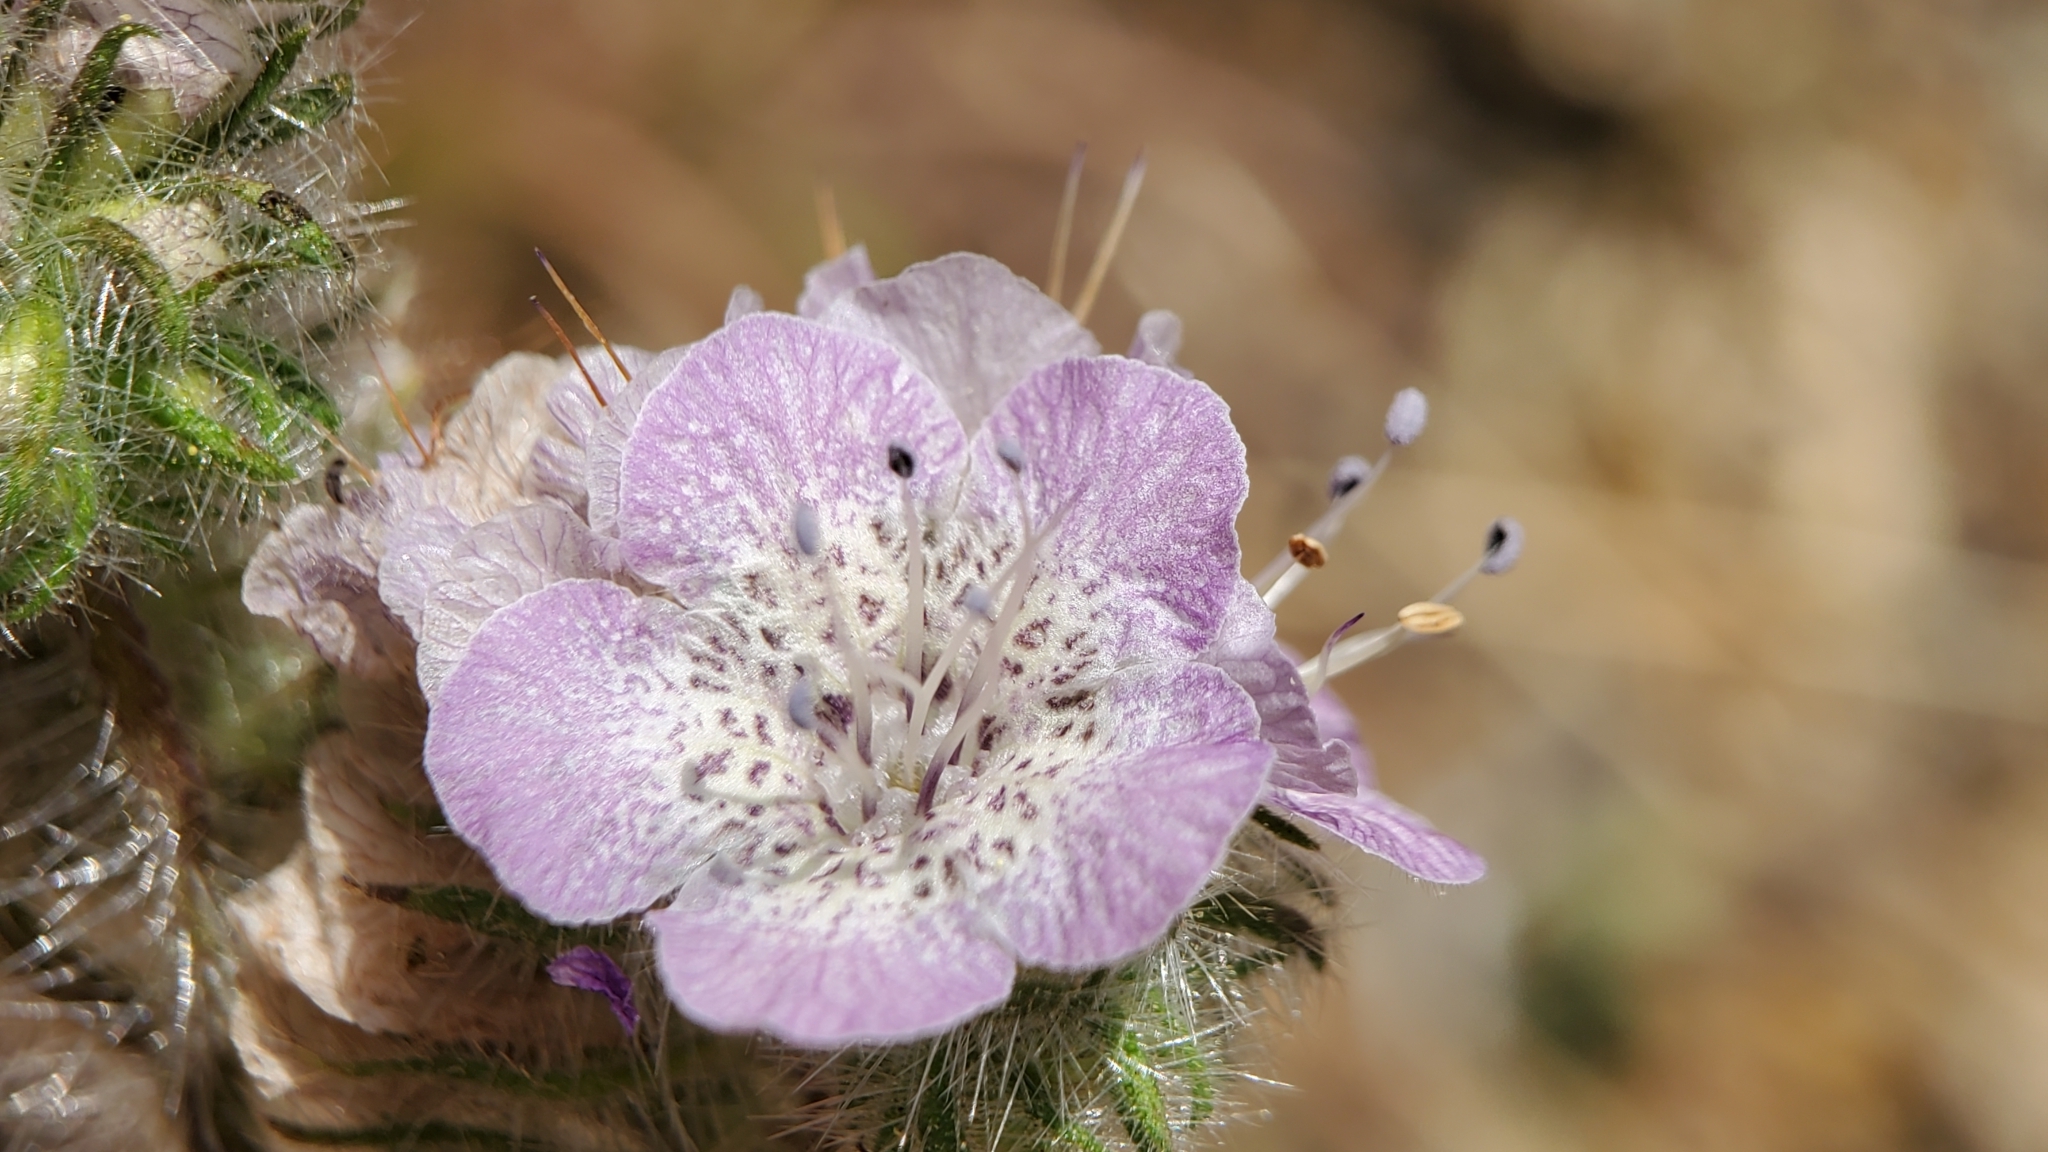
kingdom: Plantae
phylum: Tracheophyta
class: Magnoliopsida
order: Boraginales
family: Hydrophyllaceae
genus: Phacelia
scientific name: Phacelia cicutaria
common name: Caterpillar phacelia
